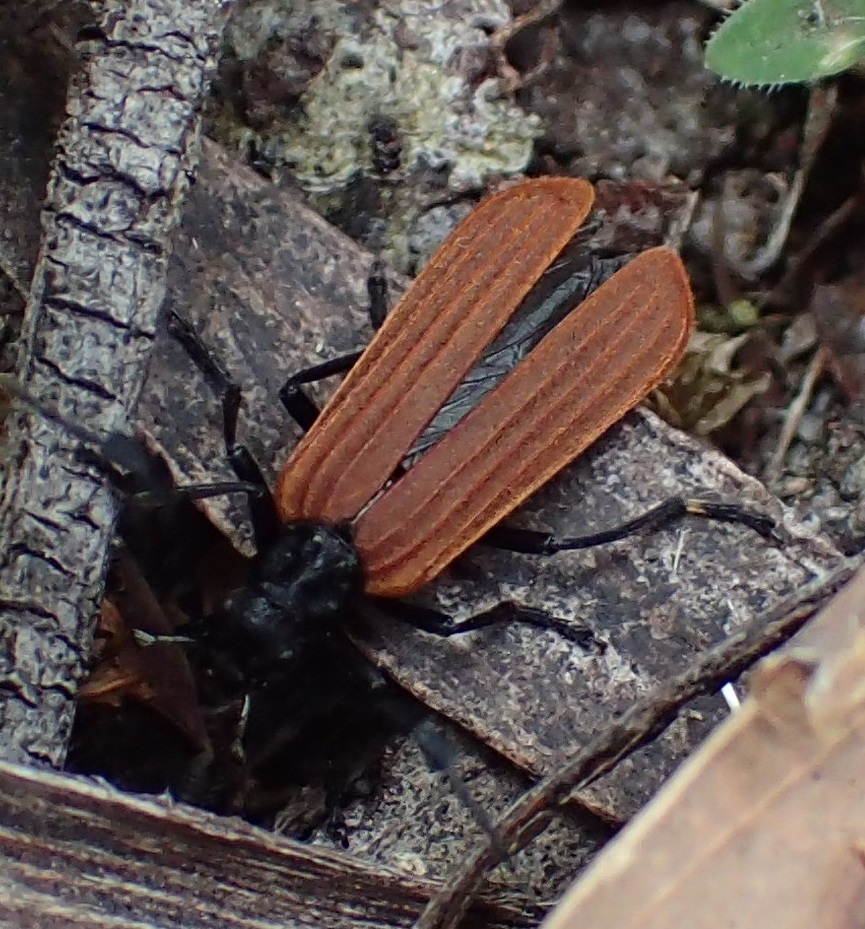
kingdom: Animalia
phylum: Arthropoda
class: Insecta
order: Coleoptera
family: Oedemeridae
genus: Pseudolycus
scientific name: Pseudolycus
